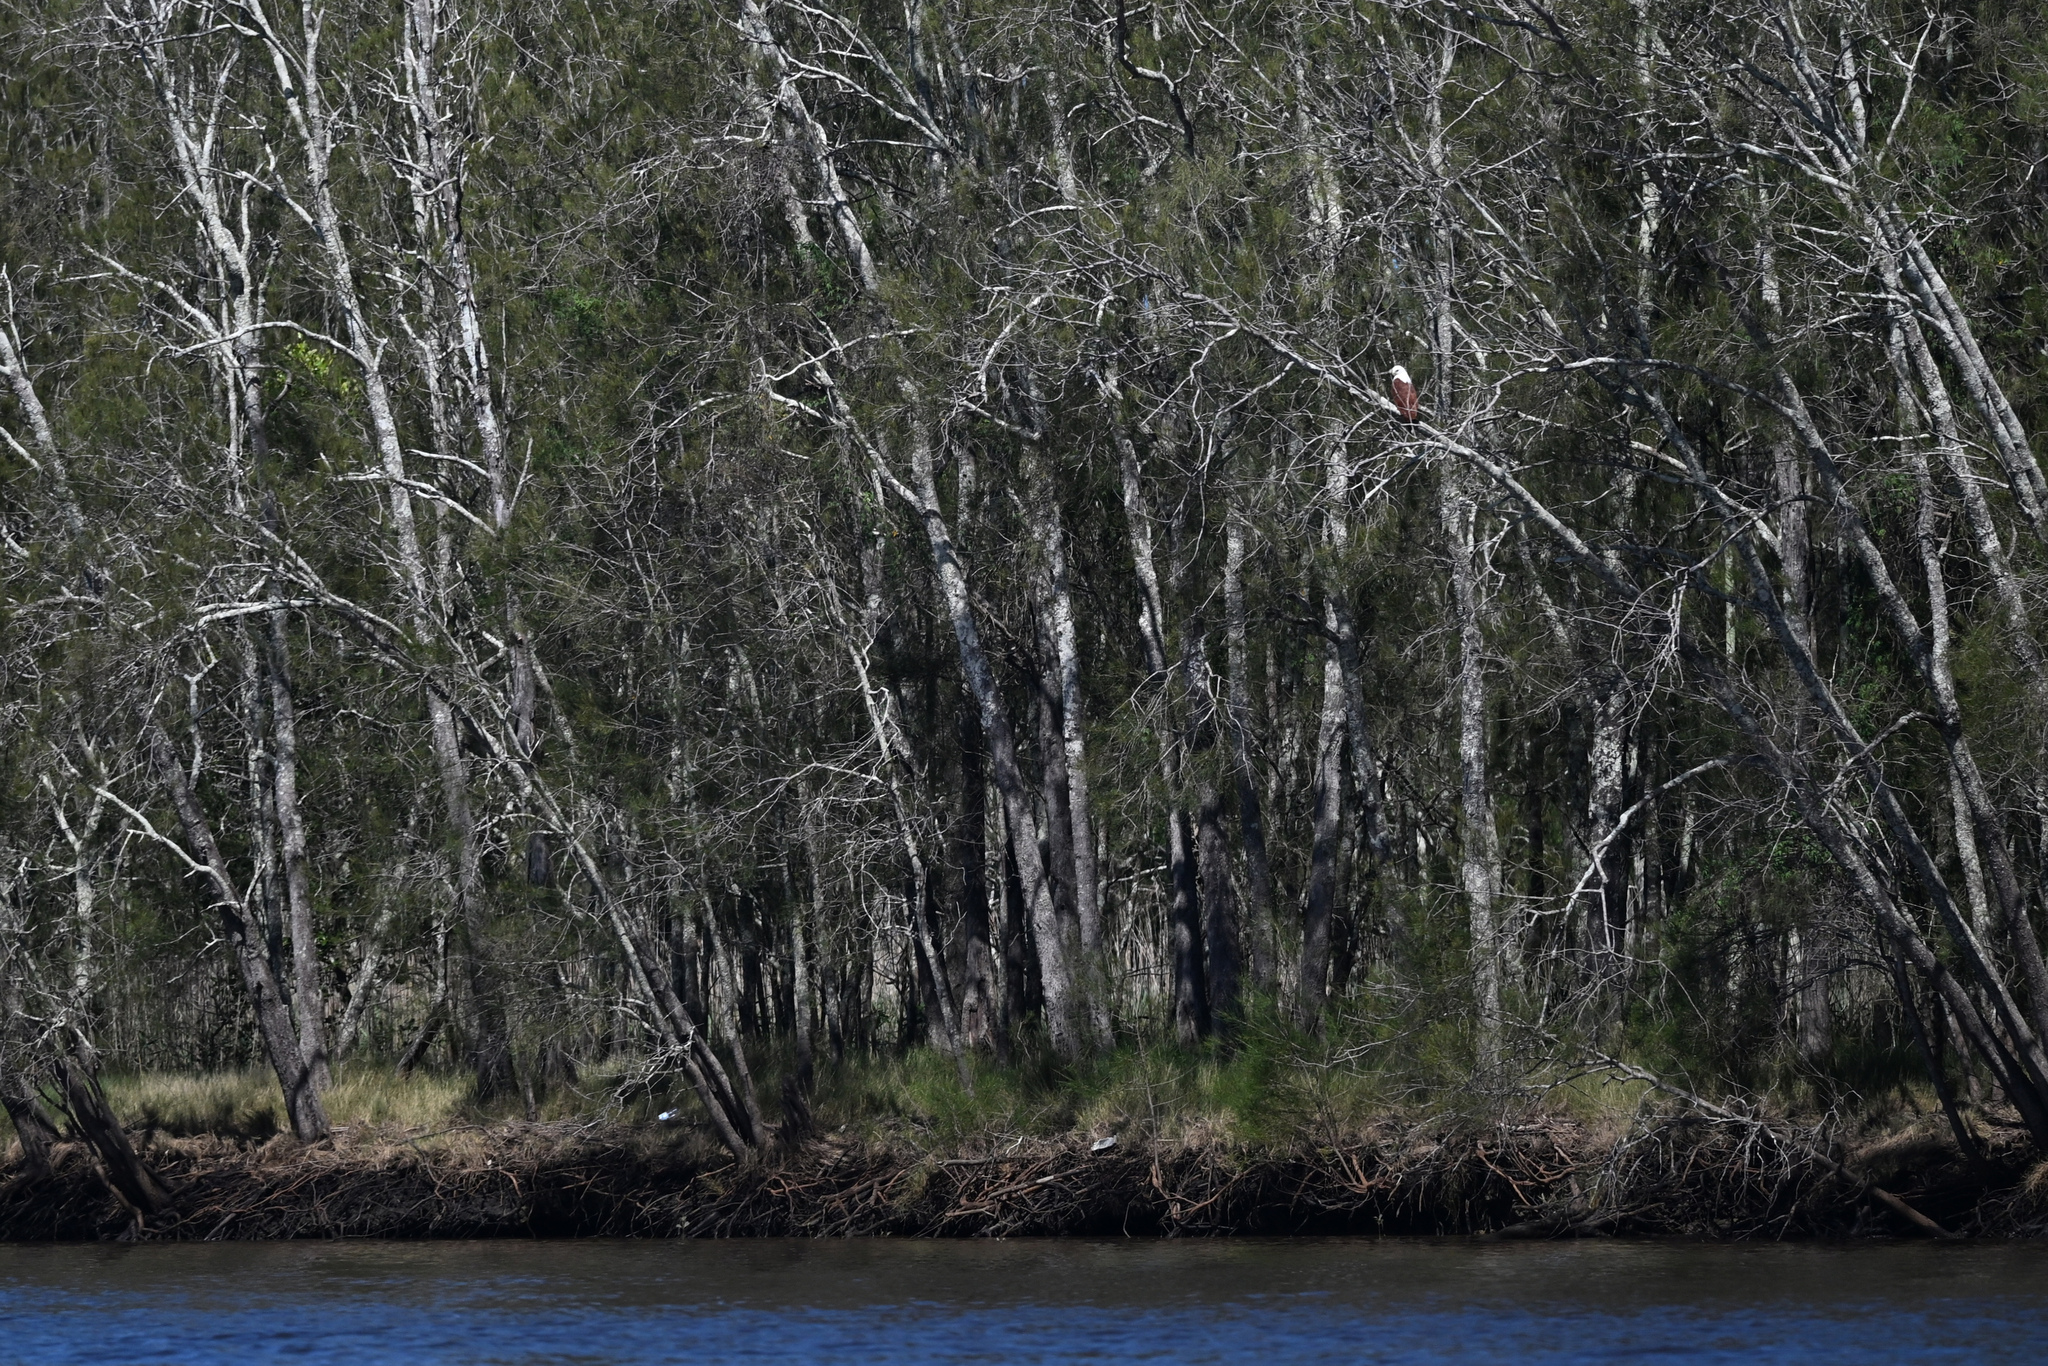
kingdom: Animalia
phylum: Chordata
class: Aves
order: Accipitriformes
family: Accipitridae
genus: Haliastur
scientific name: Haliastur indus
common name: Brahminy kite
